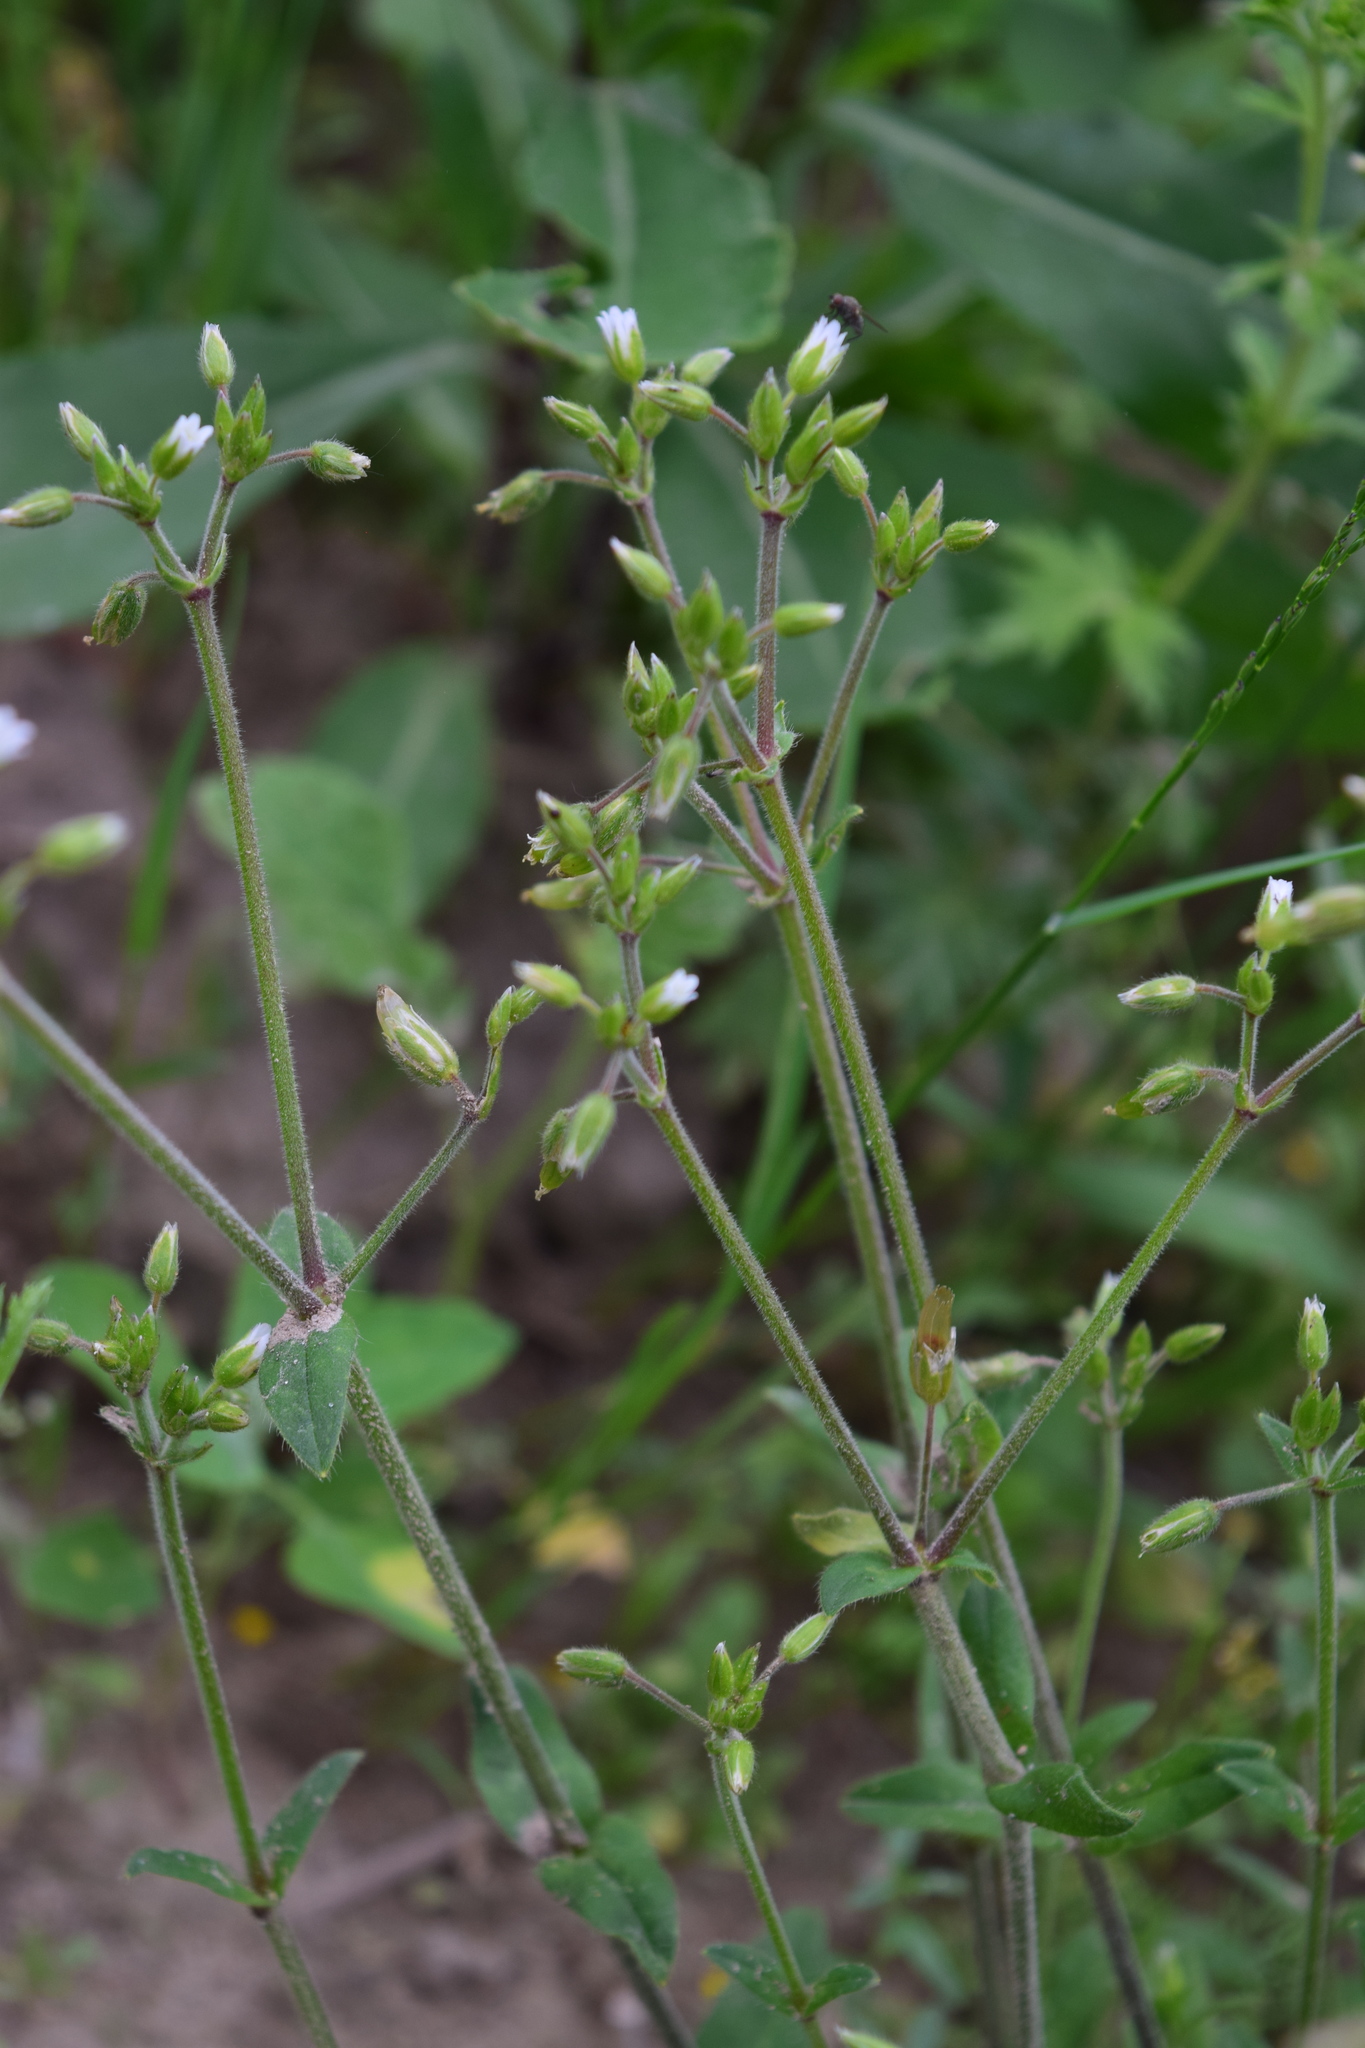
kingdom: Plantae
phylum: Tracheophyta
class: Magnoliopsida
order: Caryophyllales
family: Caryophyllaceae
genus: Cerastium
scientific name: Cerastium holosteoides
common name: Big chickweed
